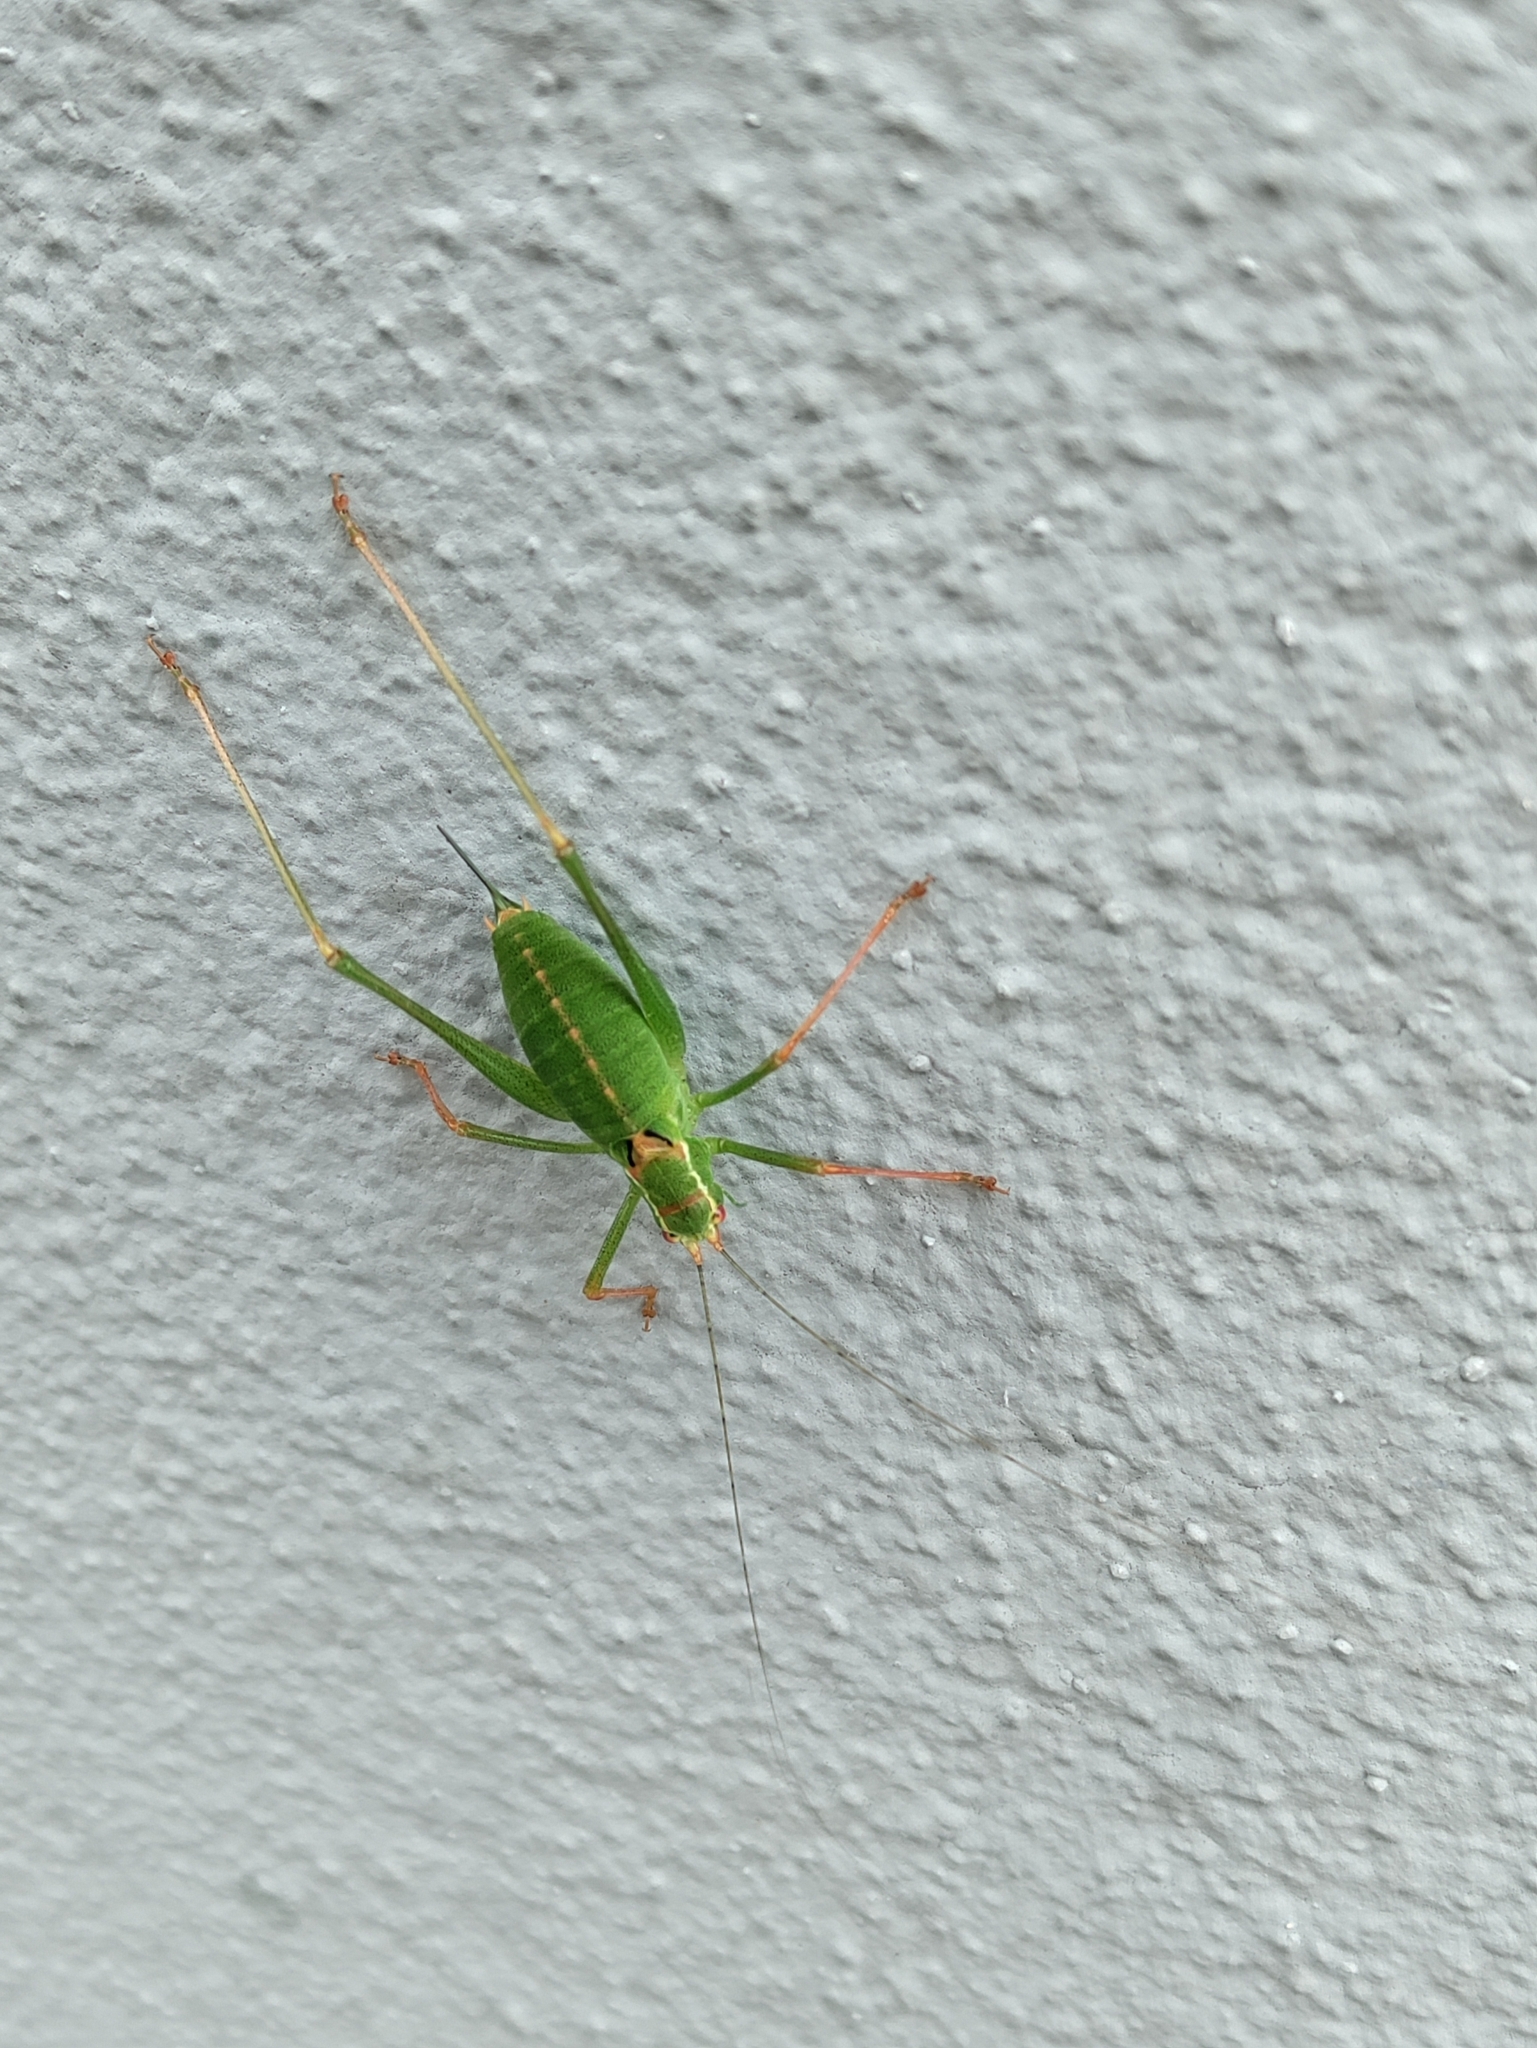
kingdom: Animalia
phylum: Arthropoda
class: Insecta
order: Orthoptera
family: Tettigoniidae
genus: Leptophyes
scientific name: Leptophyes punctatissima
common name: Speckled bush-cricket
